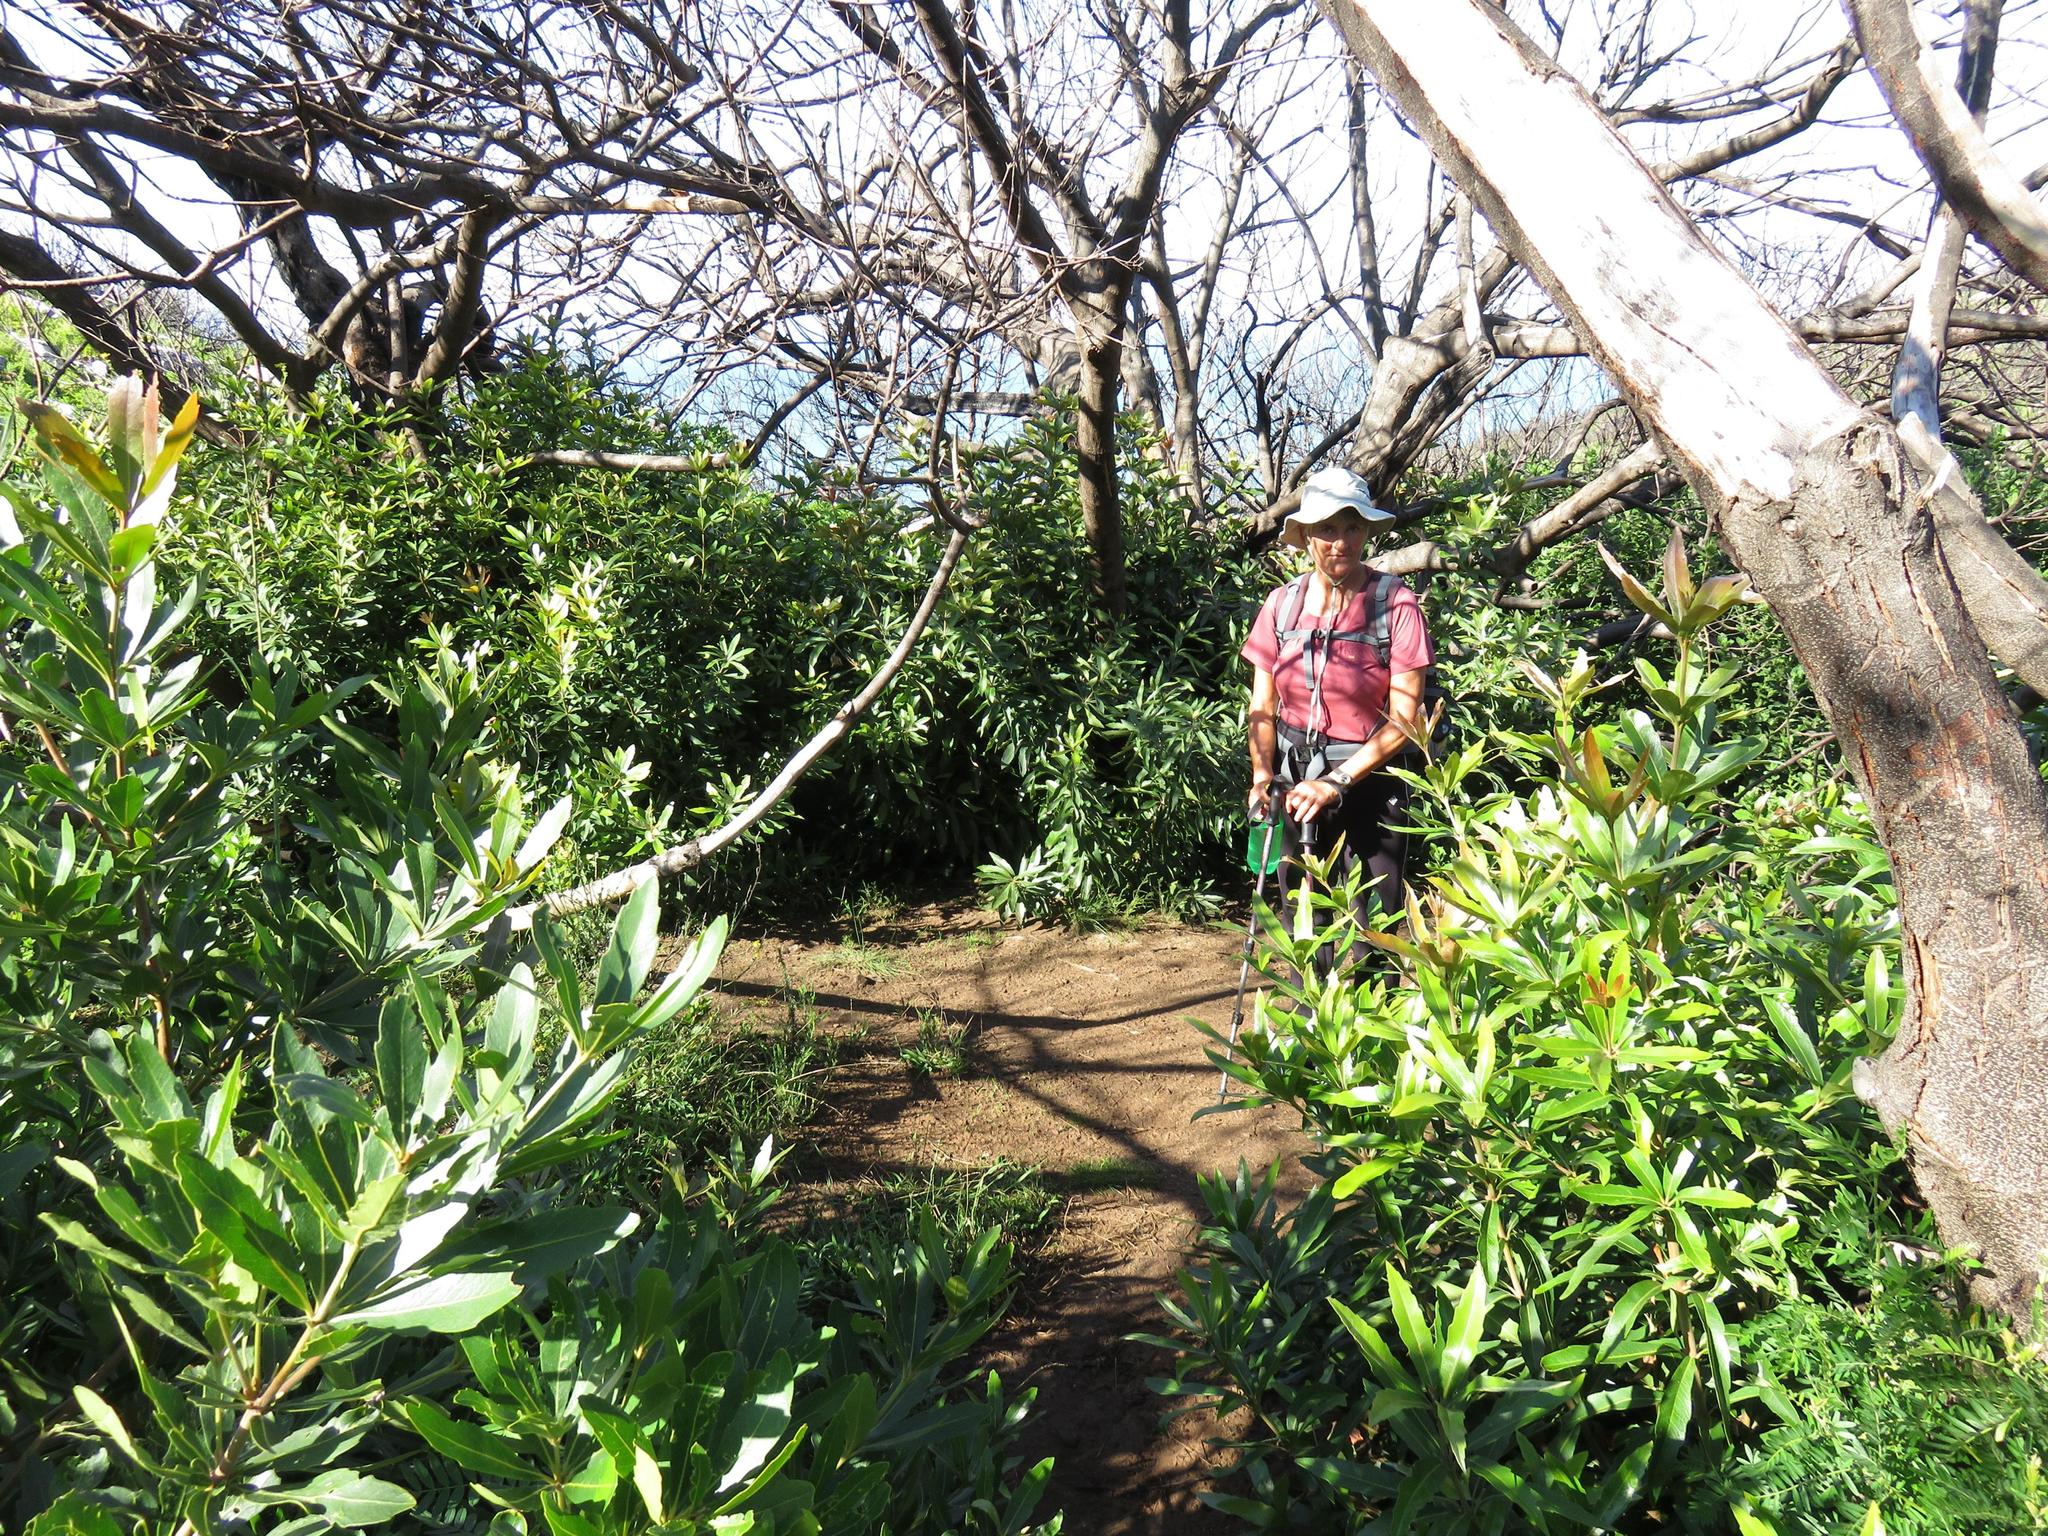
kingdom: Plantae
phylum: Tracheophyta
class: Magnoliopsida
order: Proteales
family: Proteaceae
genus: Brabejum
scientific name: Brabejum stellatifolium
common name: Wild almond
